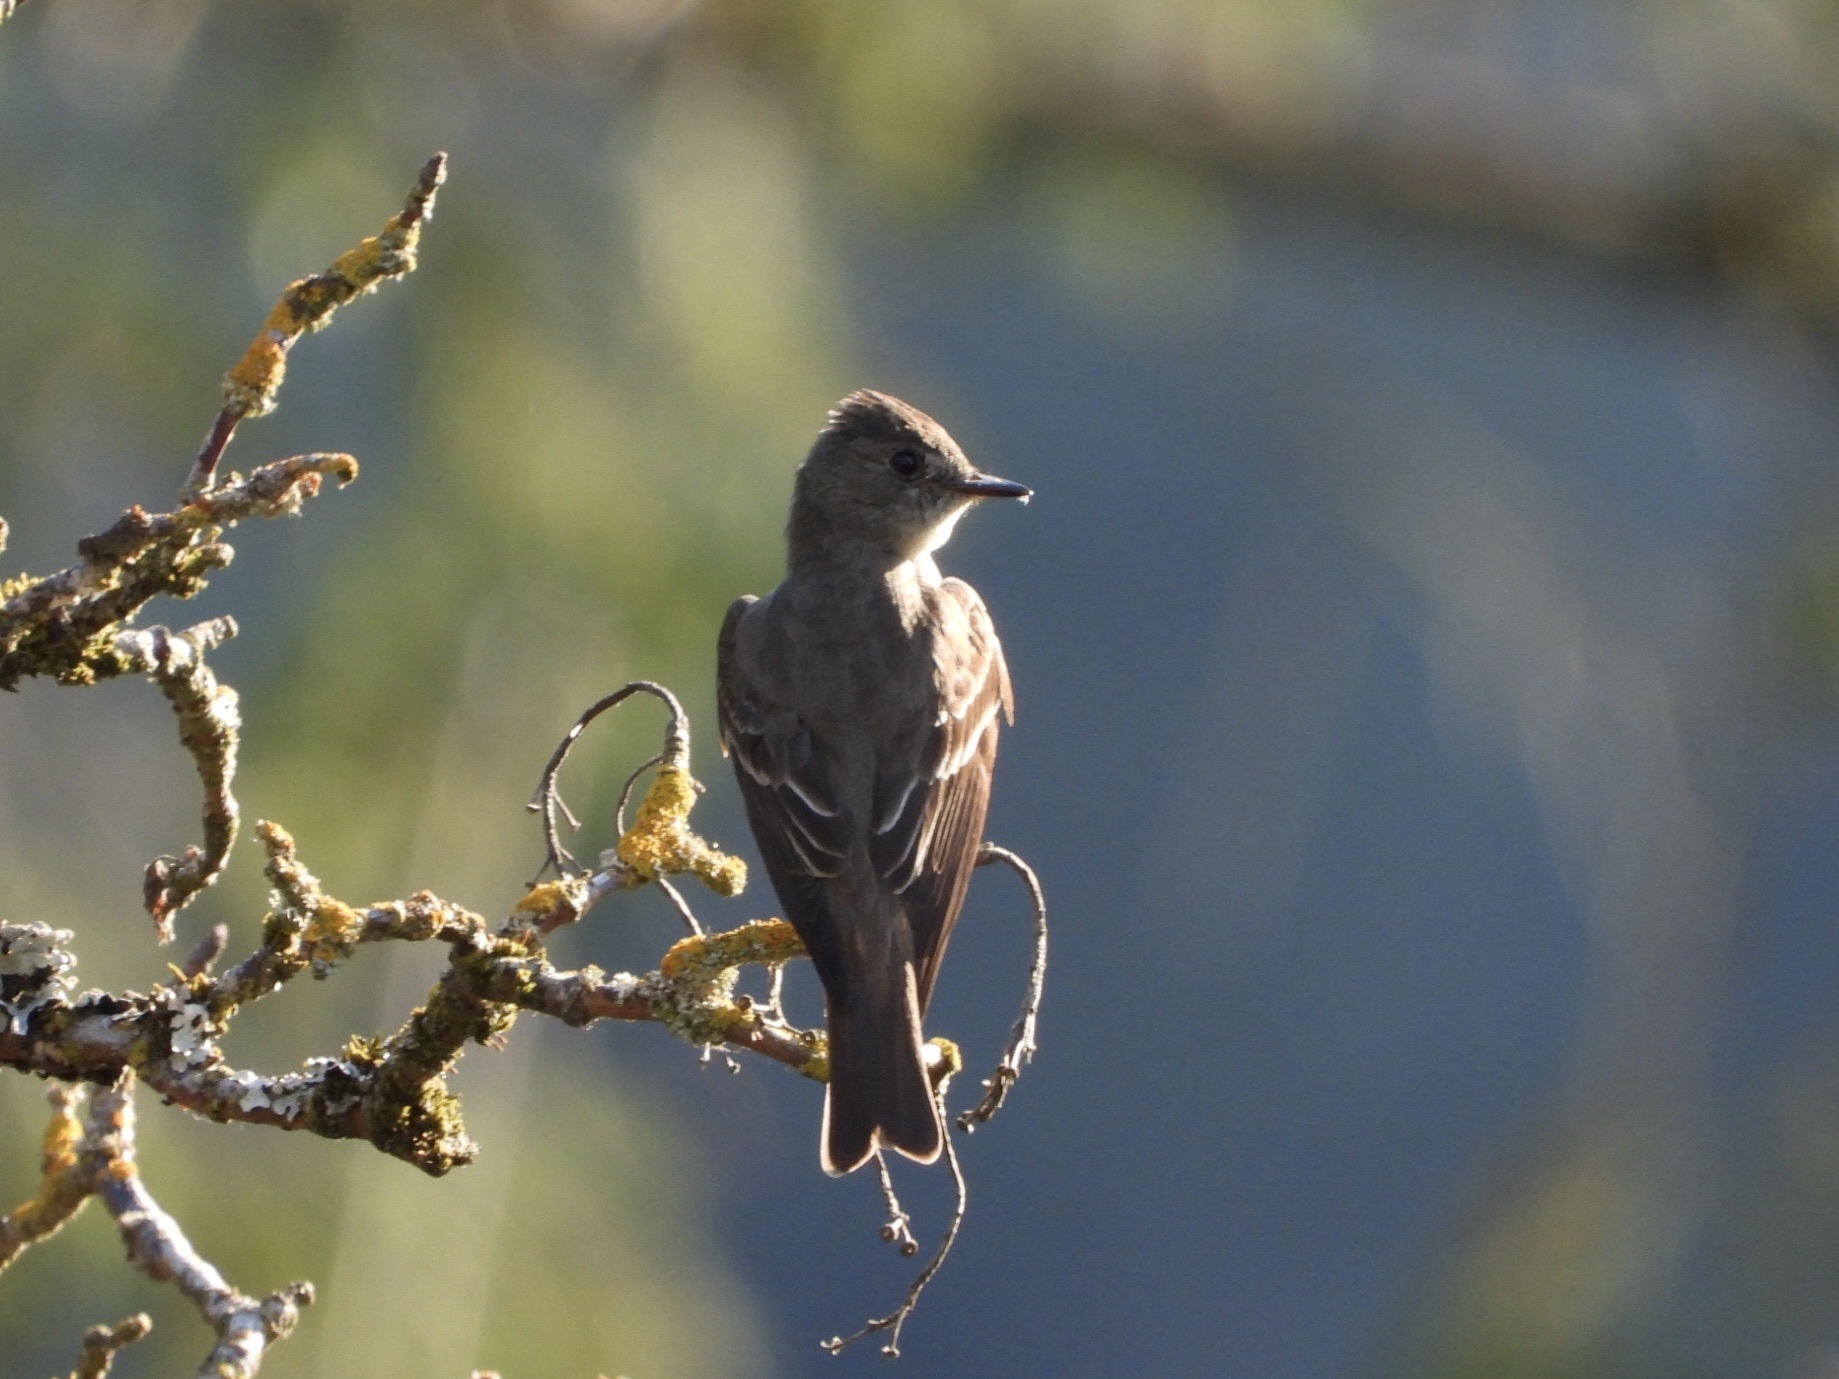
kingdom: Animalia
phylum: Chordata
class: Aves
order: Passeriformes
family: Tyrannidae
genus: Contopus
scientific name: Contopus sordidulus
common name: Western wood-pewee
